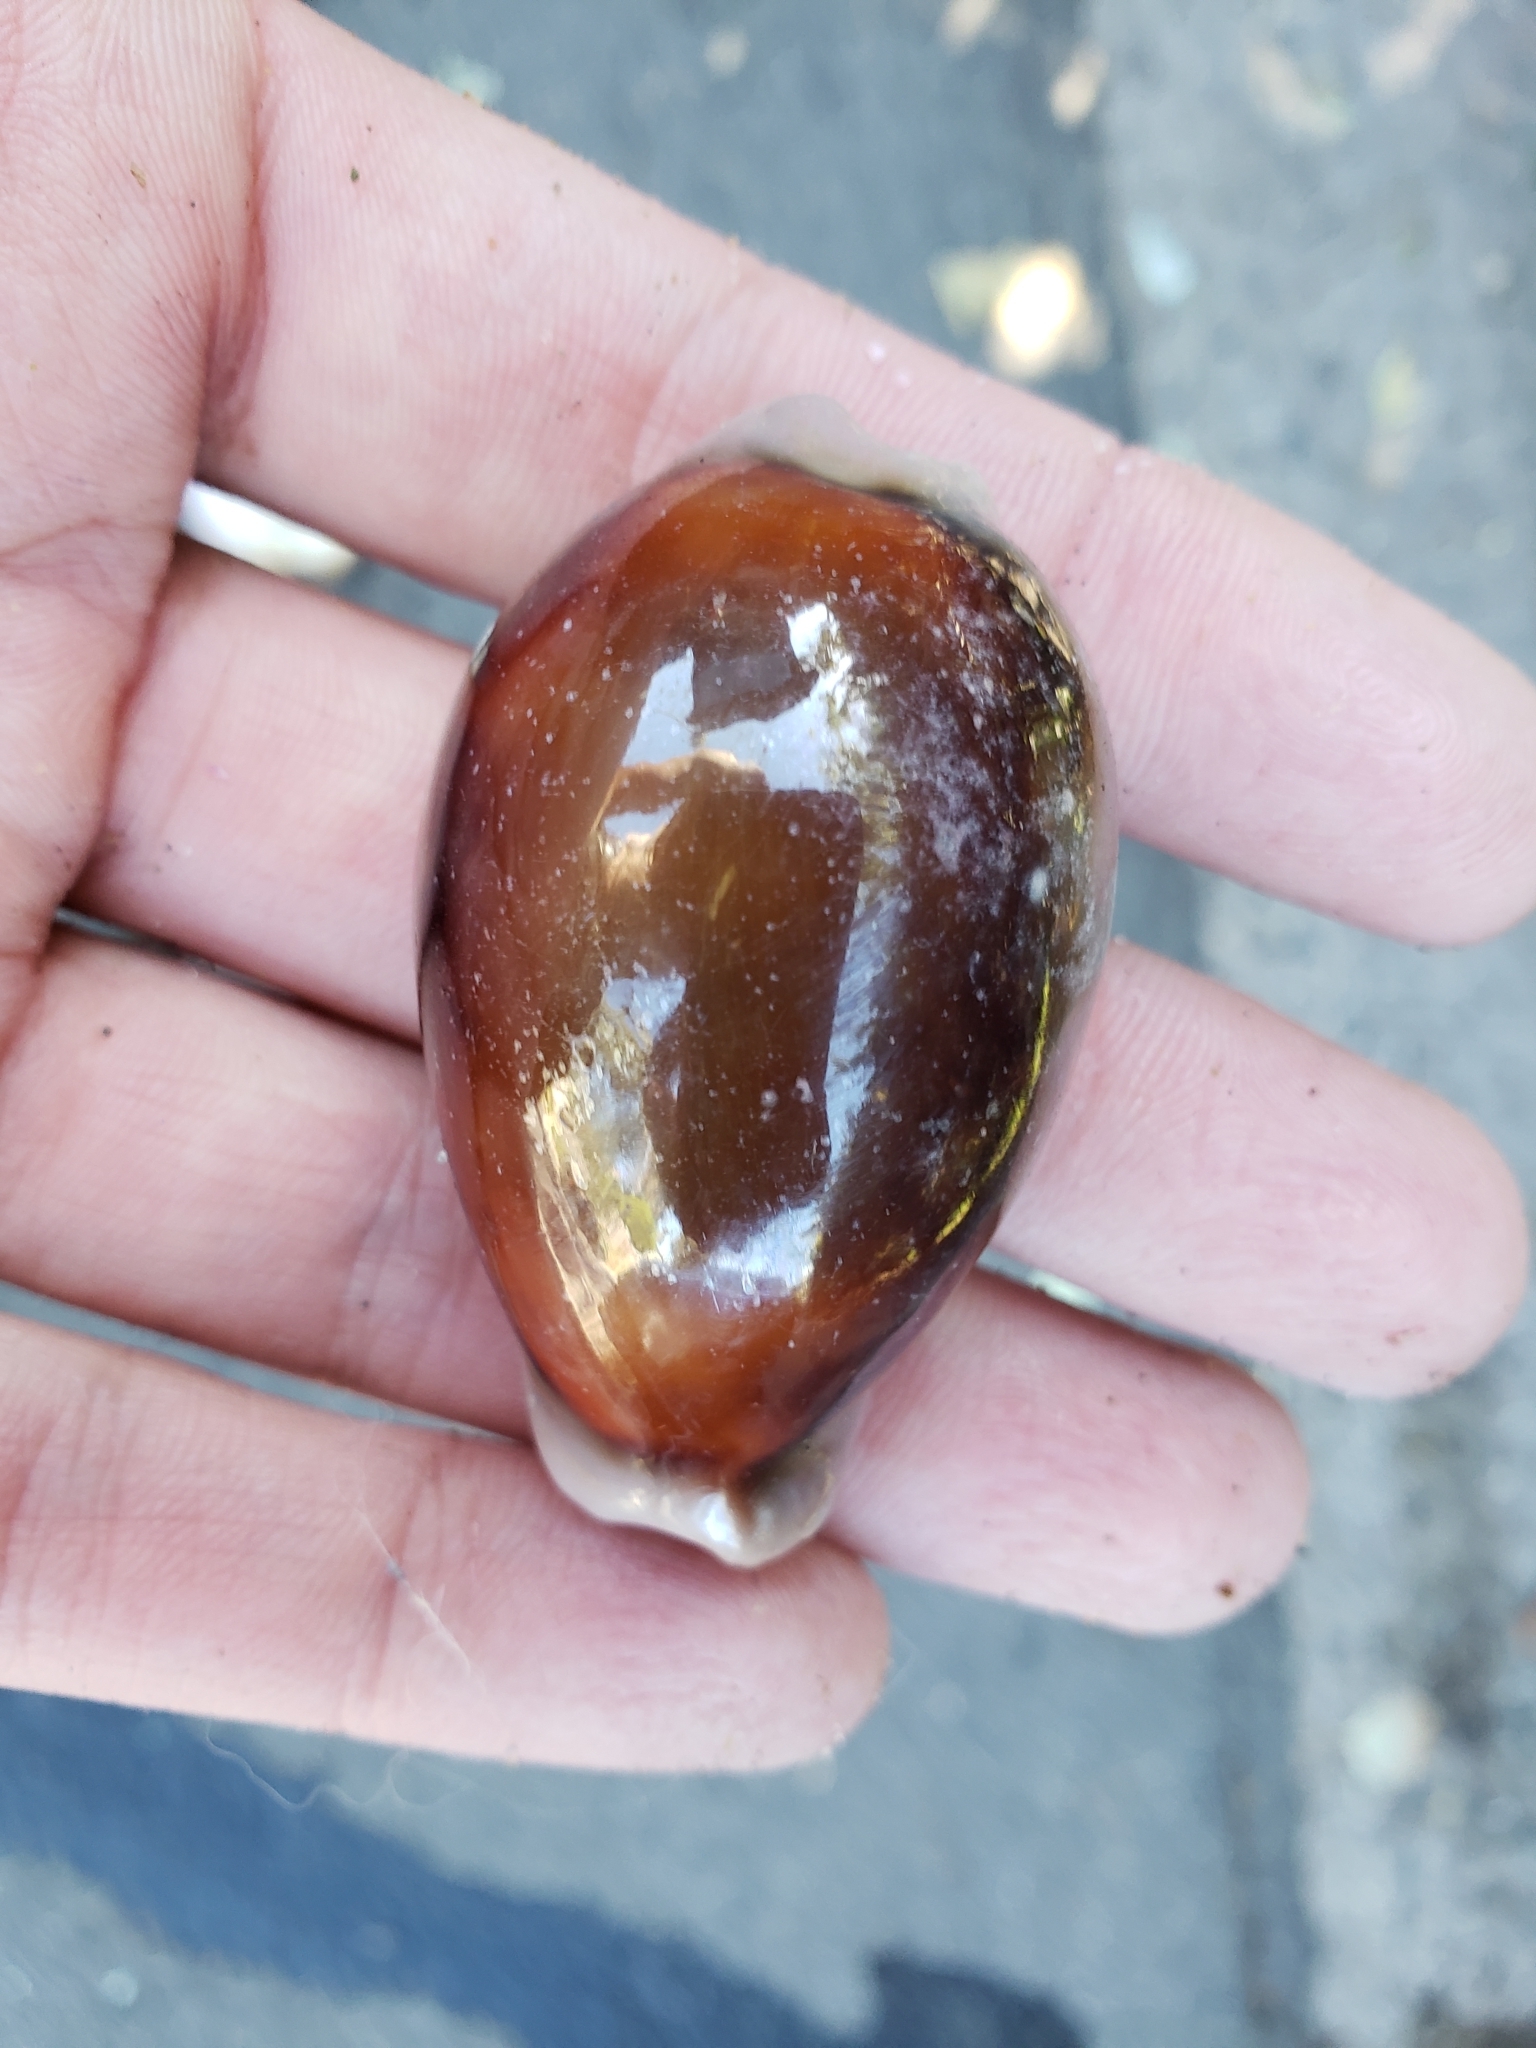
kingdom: Animalia
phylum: Mollusca
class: Gastropoda
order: Littorinimorpha
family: Cypraeidae
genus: Neobernaya
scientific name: Neobernaya spadicea
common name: Chestnut cowrie
